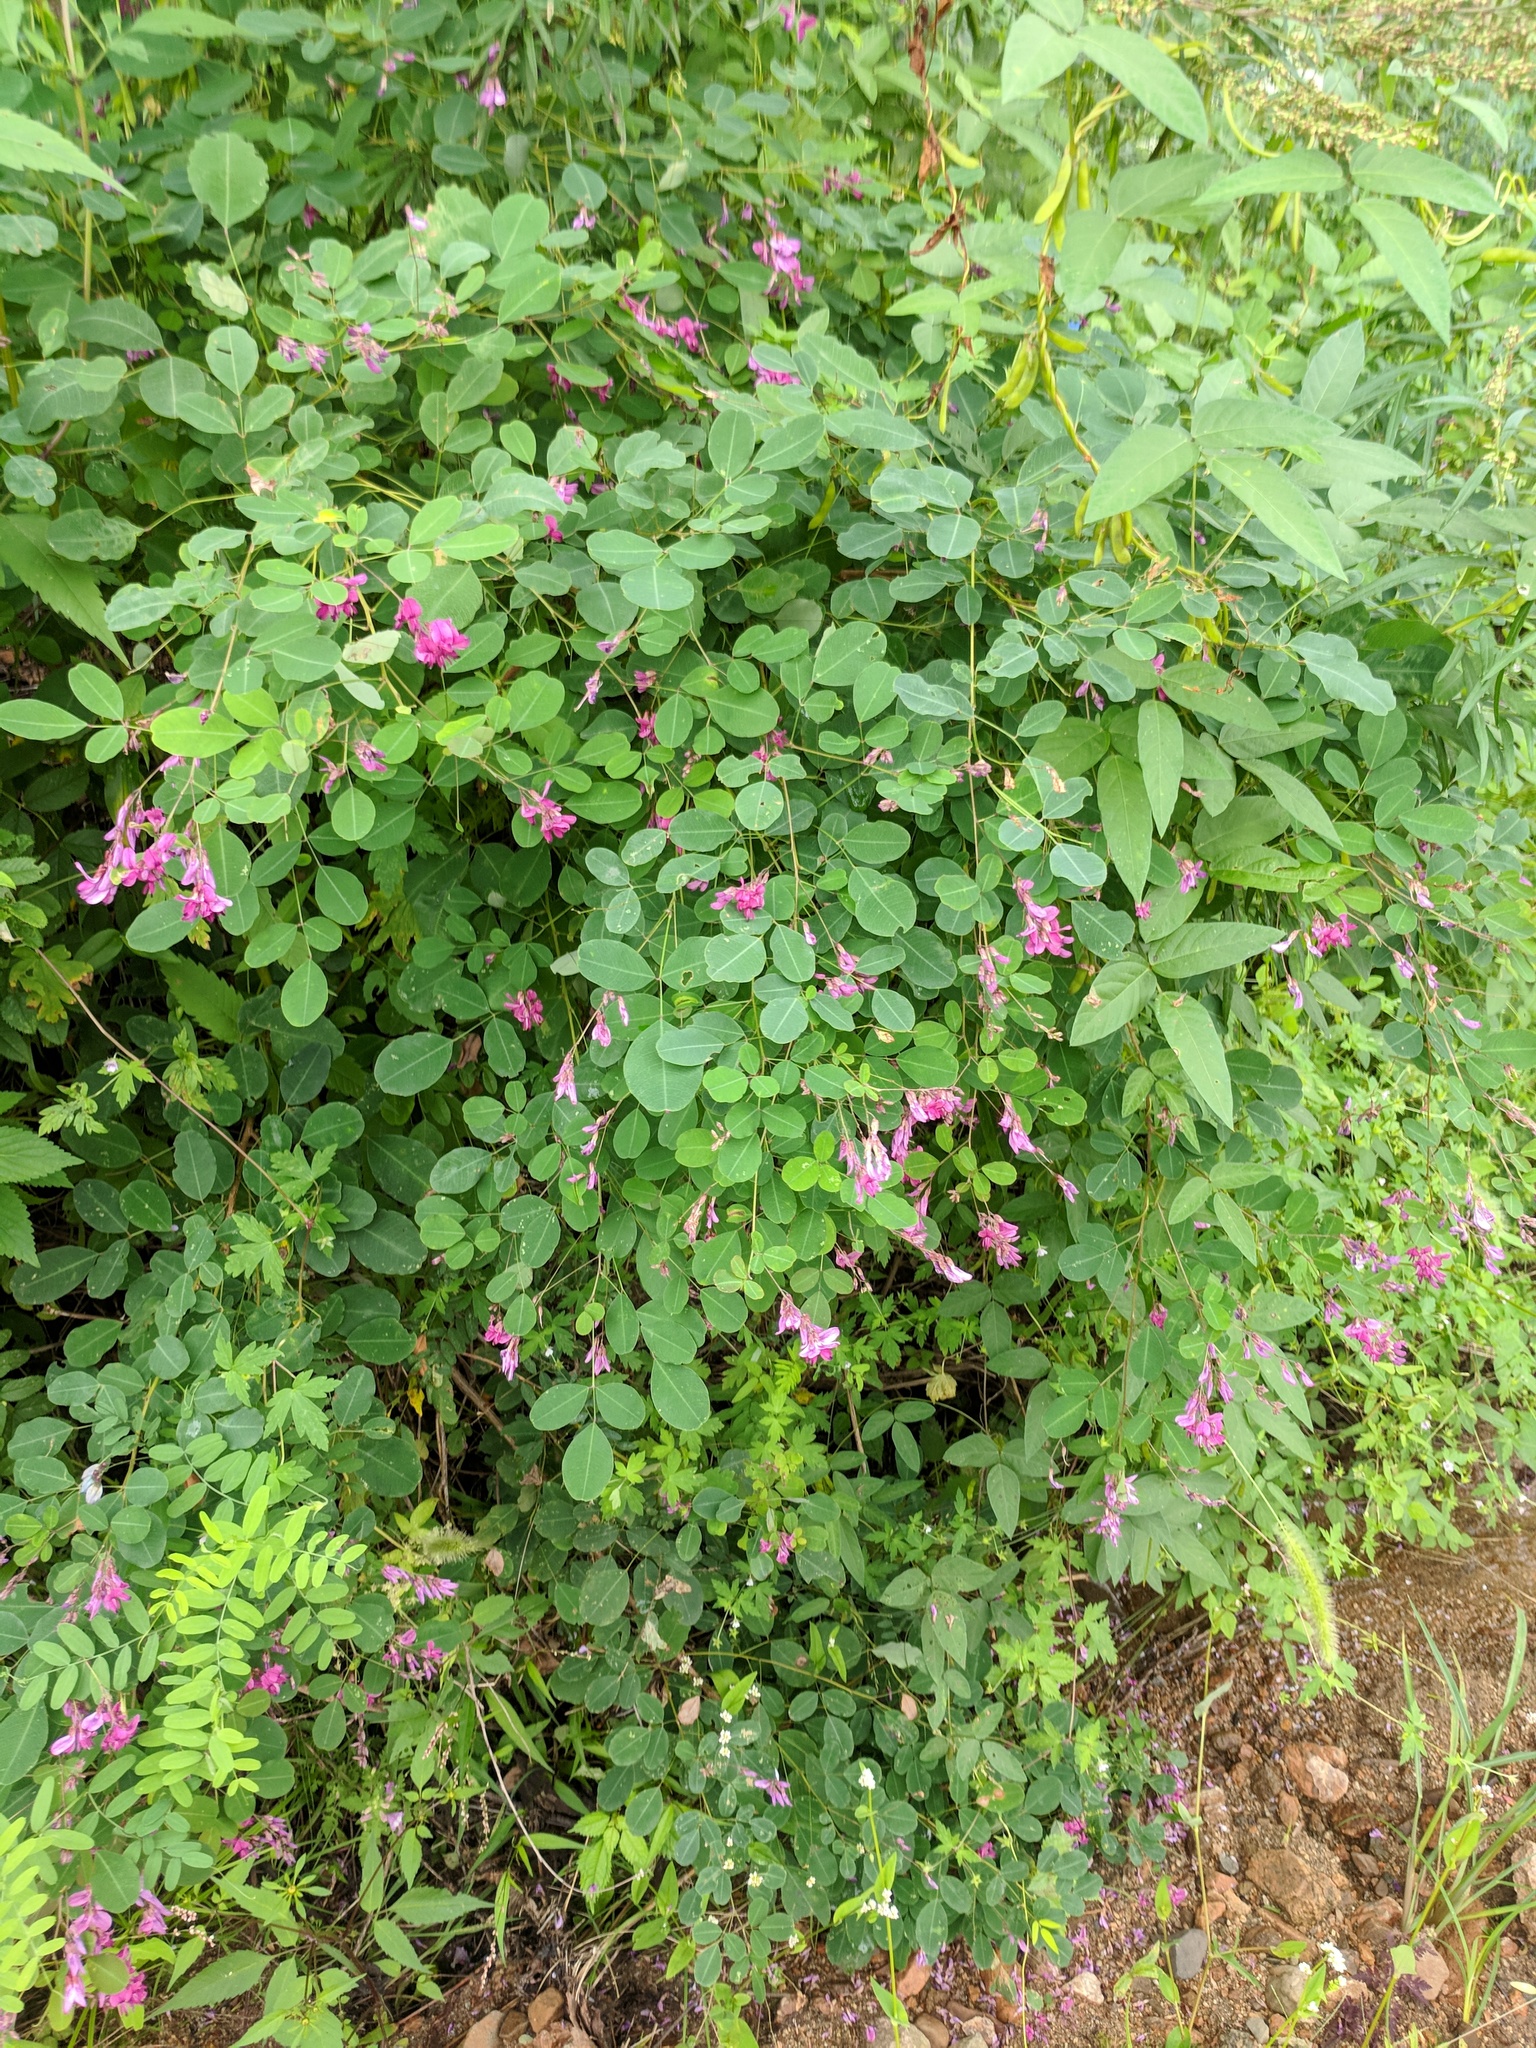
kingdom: Plantae
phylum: Tracheophyta
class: Magnoliopsida
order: Fabales
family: Fabaceae
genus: Lespedeza
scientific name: Lespedeza bicolor
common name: Shrub lespedeza
